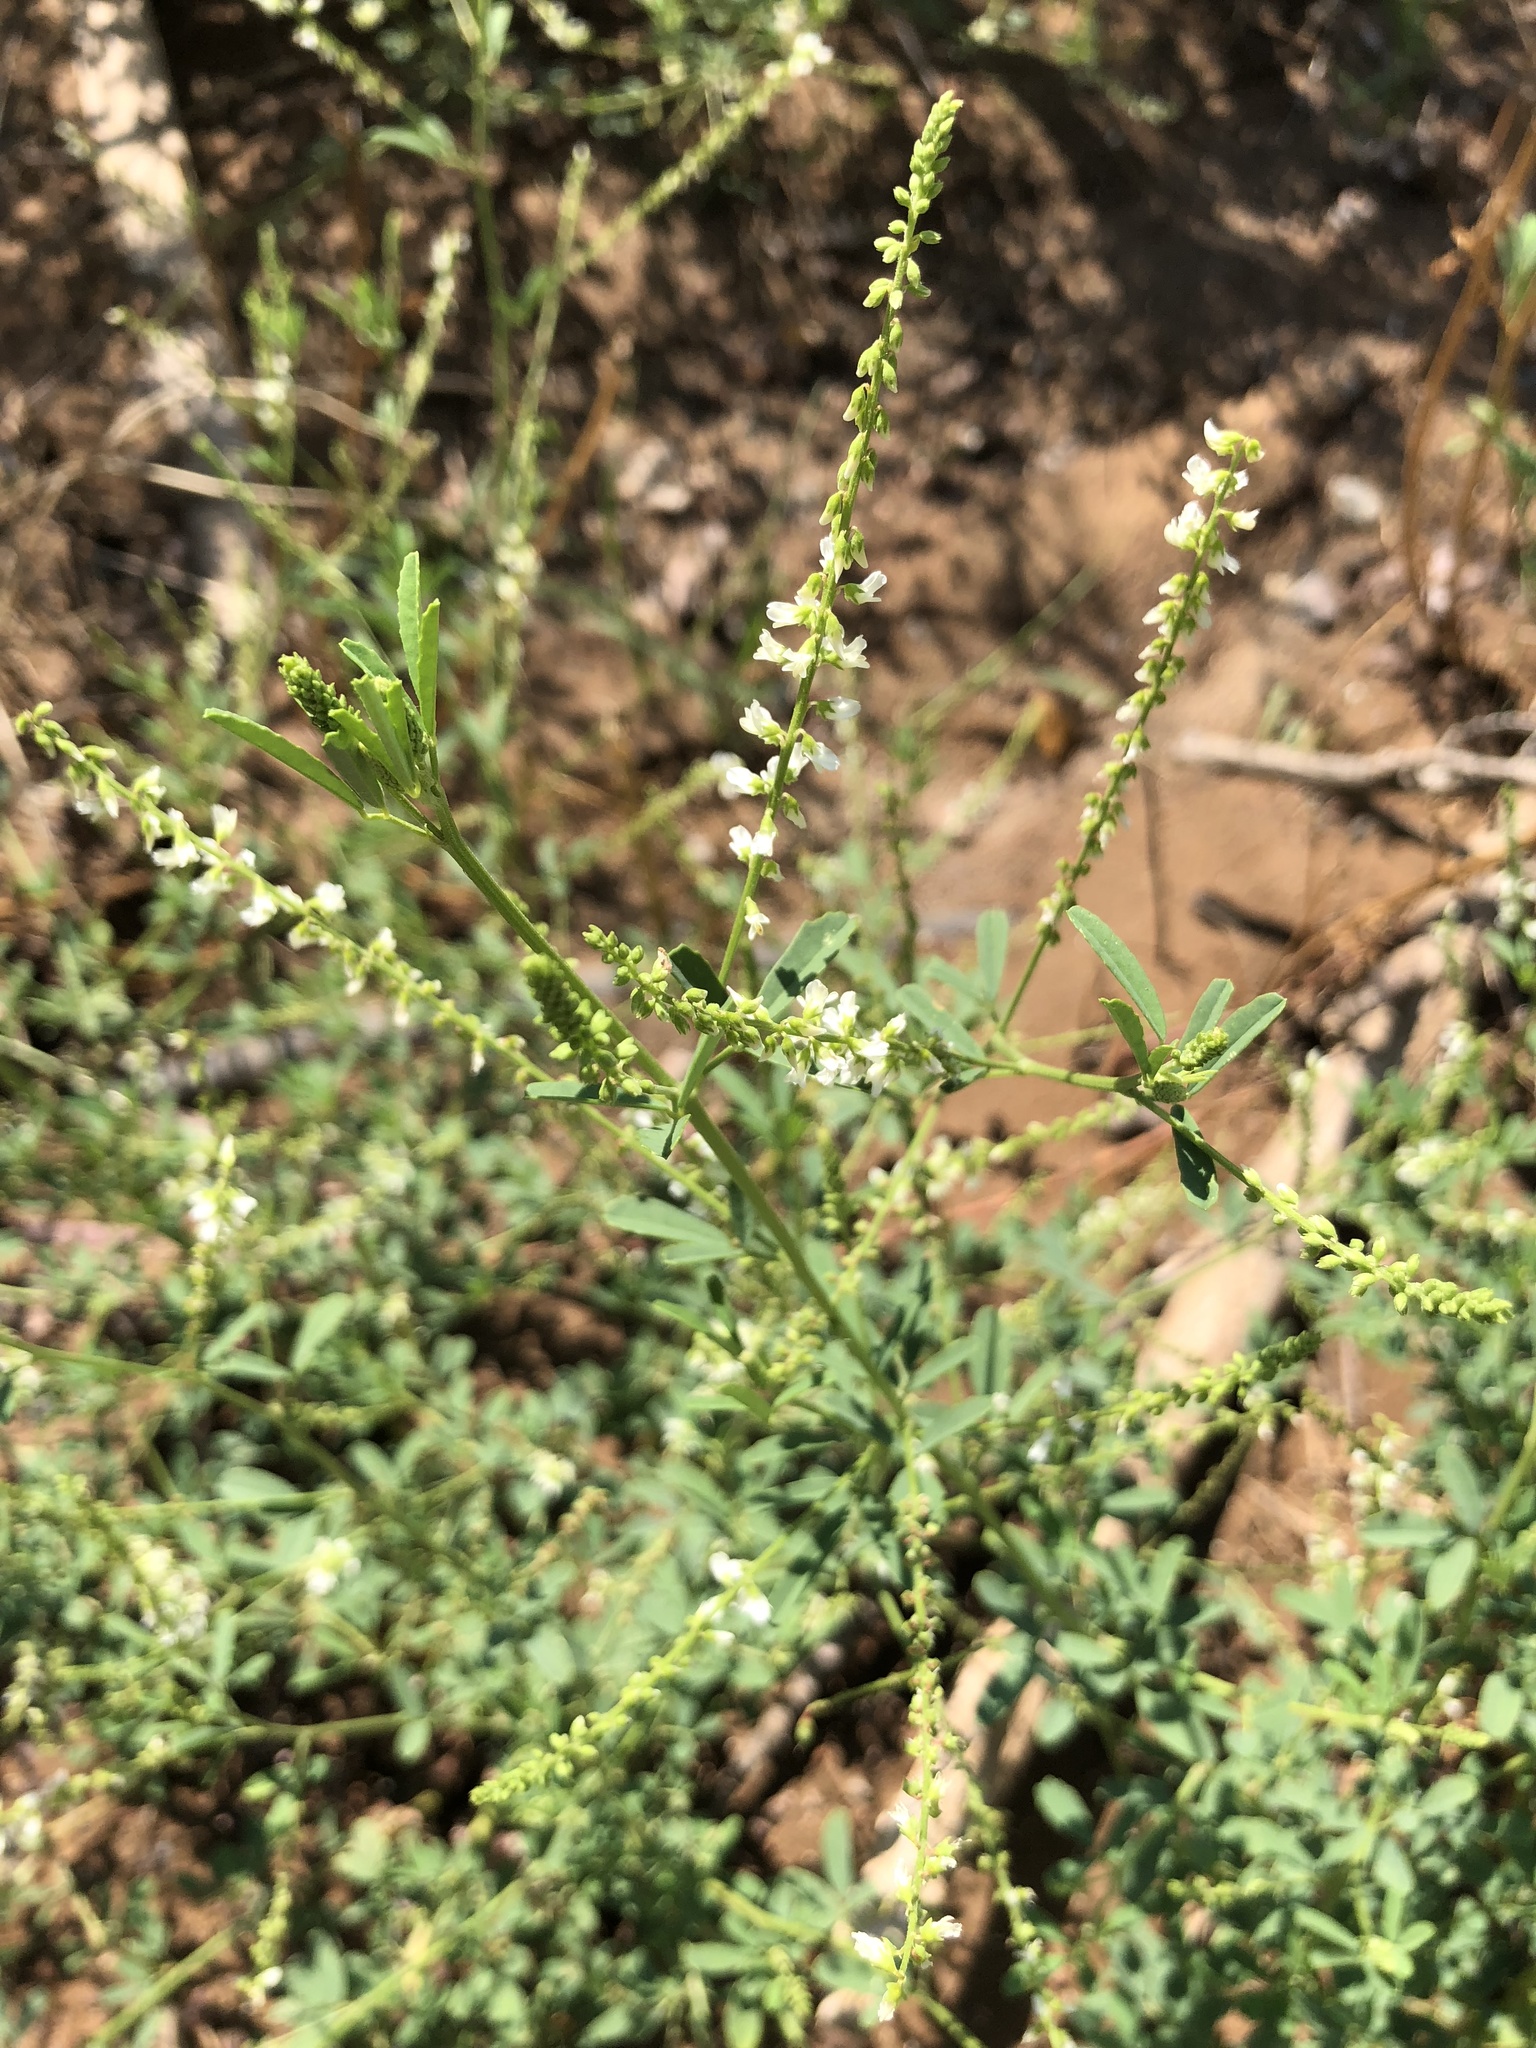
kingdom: Plantae
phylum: Tracheophyta
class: Magnoliopsida
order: Fabales
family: Fabaceae
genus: Melilotus
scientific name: Melilotus albus
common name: White melilot
